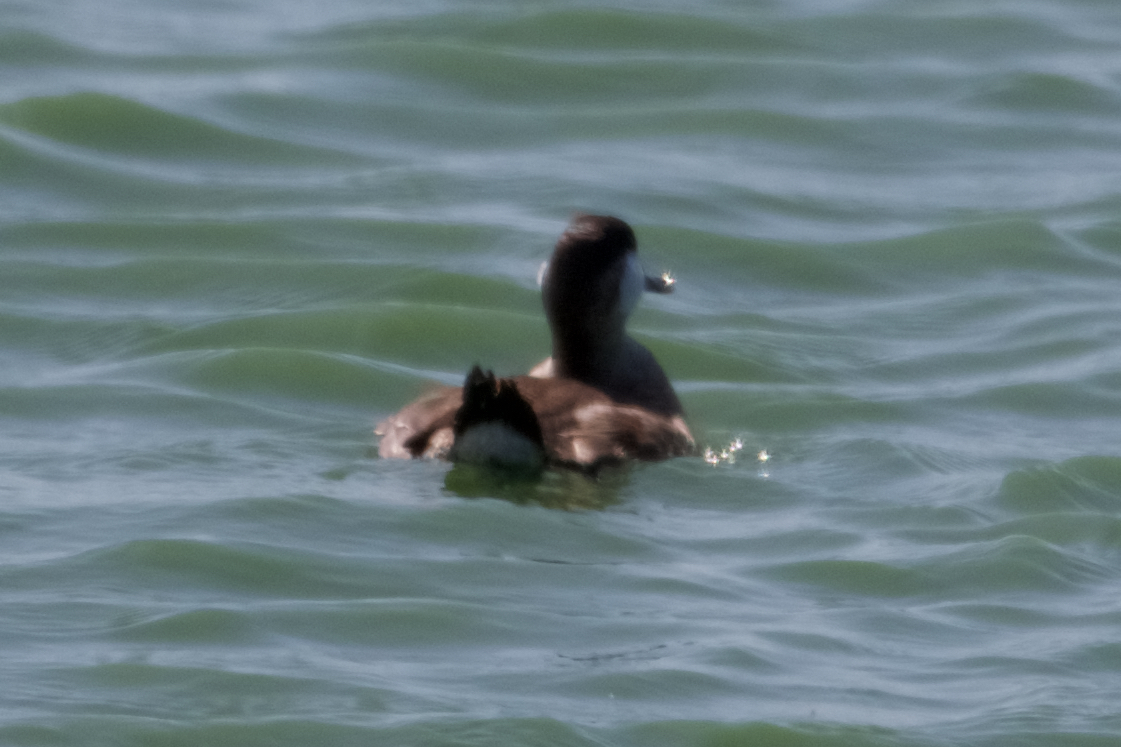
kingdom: Animalia
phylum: Chordata
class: Aves
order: Anseriformes
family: Anatidae
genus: Oxyura
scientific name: Oxyura jamaicensis
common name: Ruddy duck
